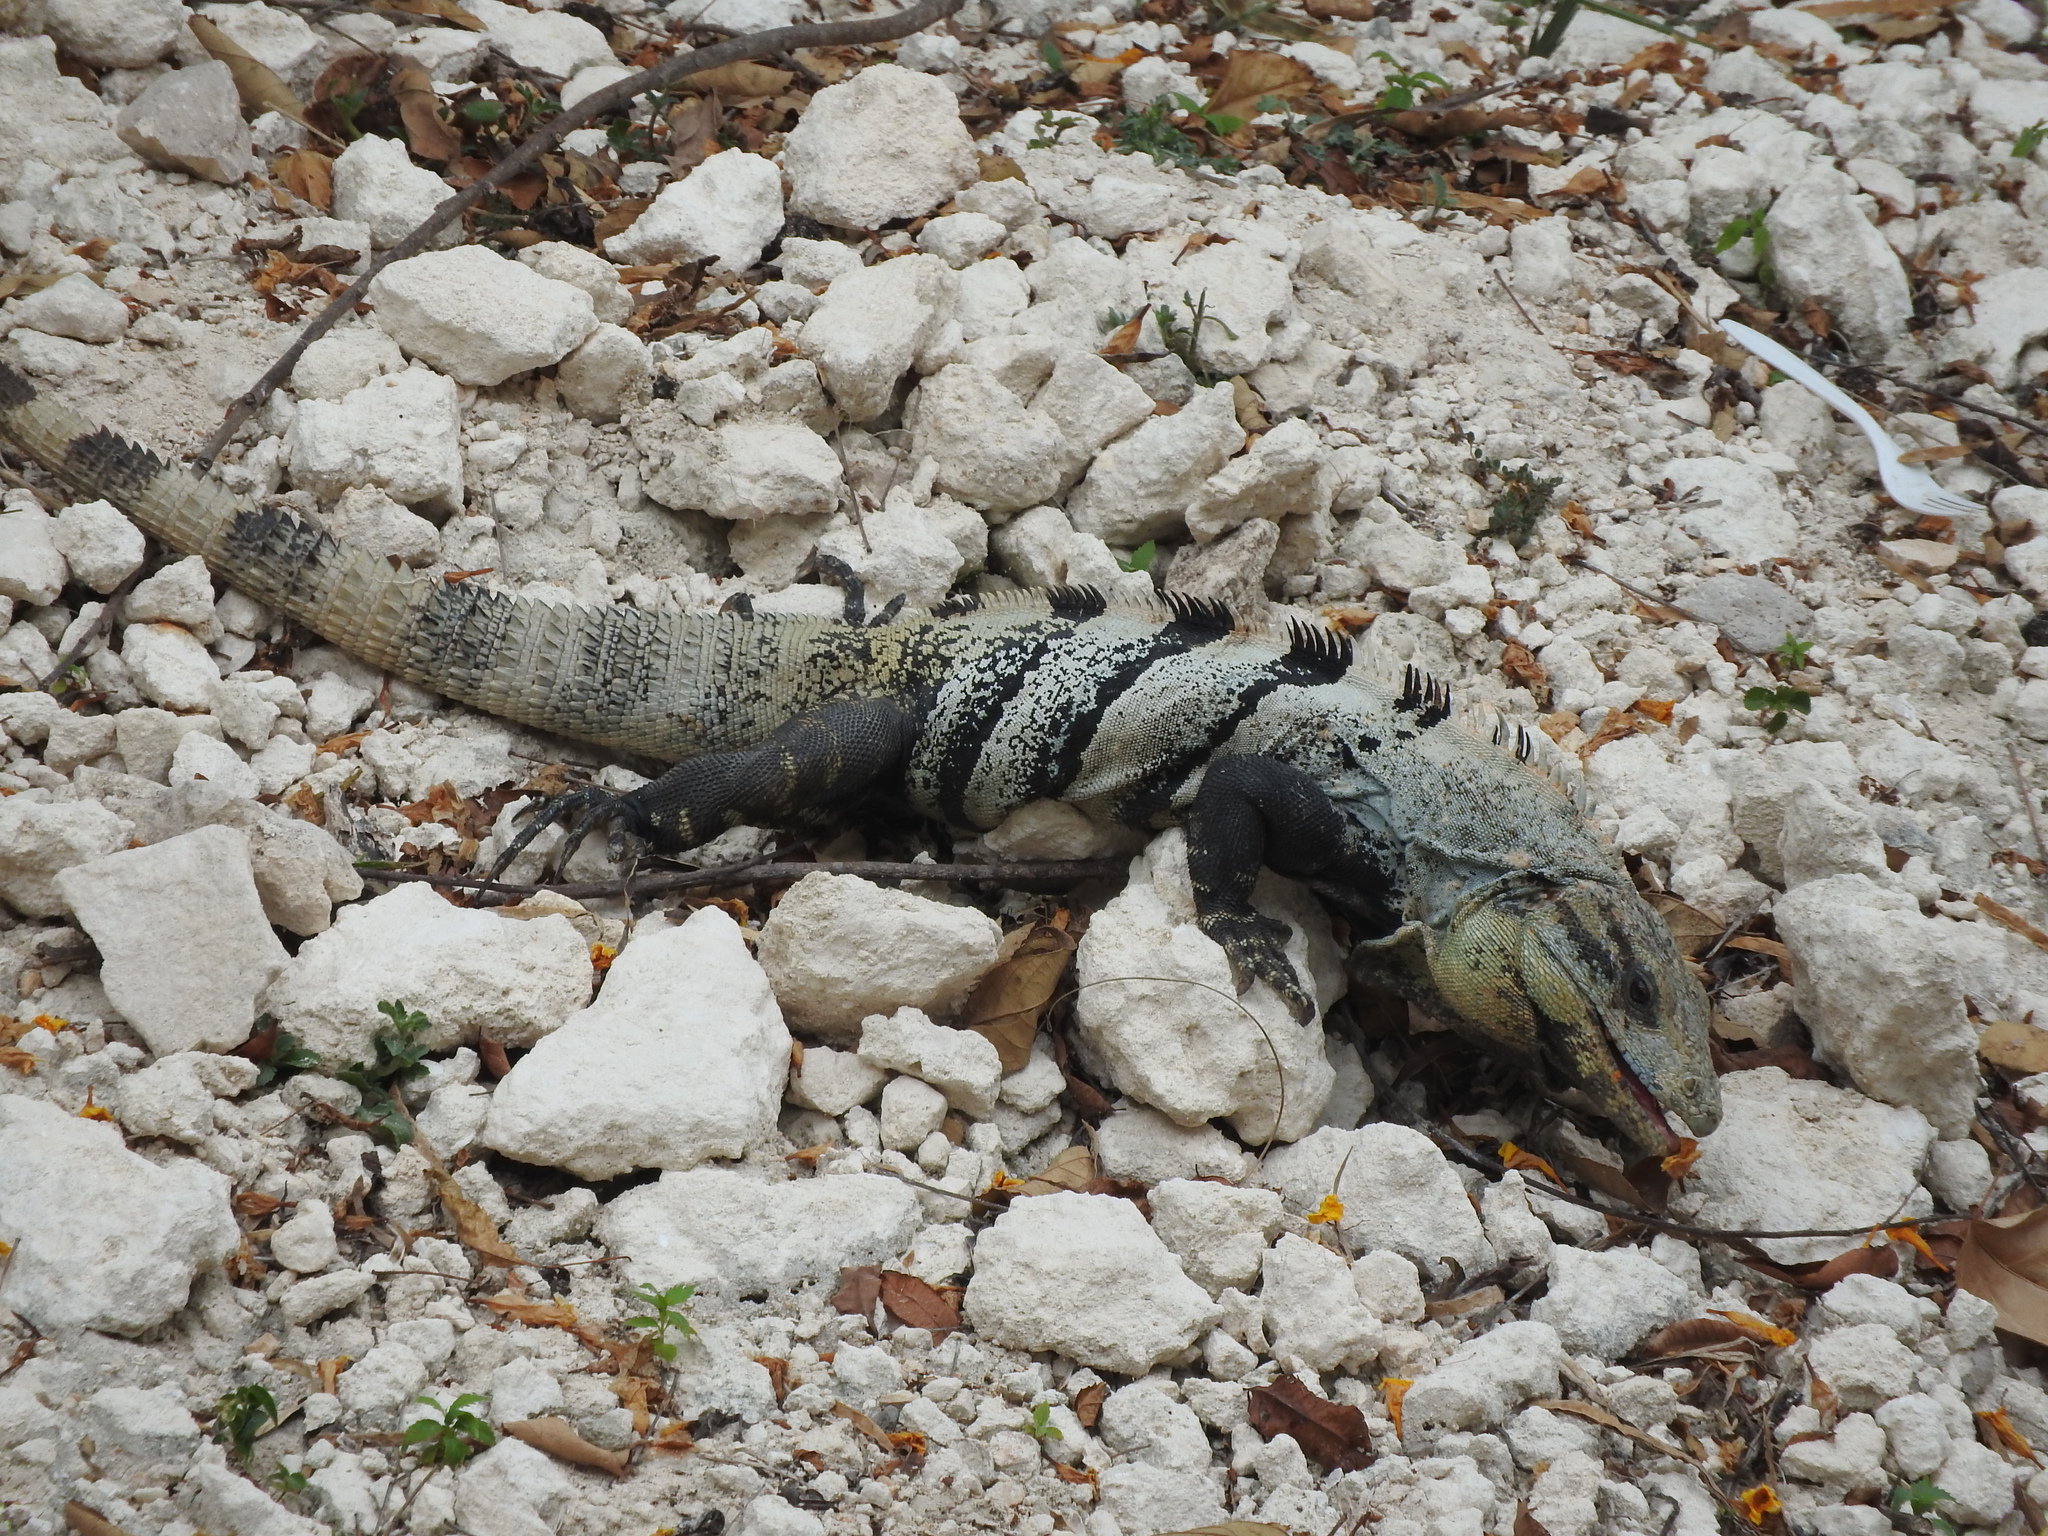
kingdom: Animalia
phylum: Chordata
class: Squamata
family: Iguanidae
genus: Ctenosaura
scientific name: Ctenosaura similis
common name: Black spiny-tailed iguana
